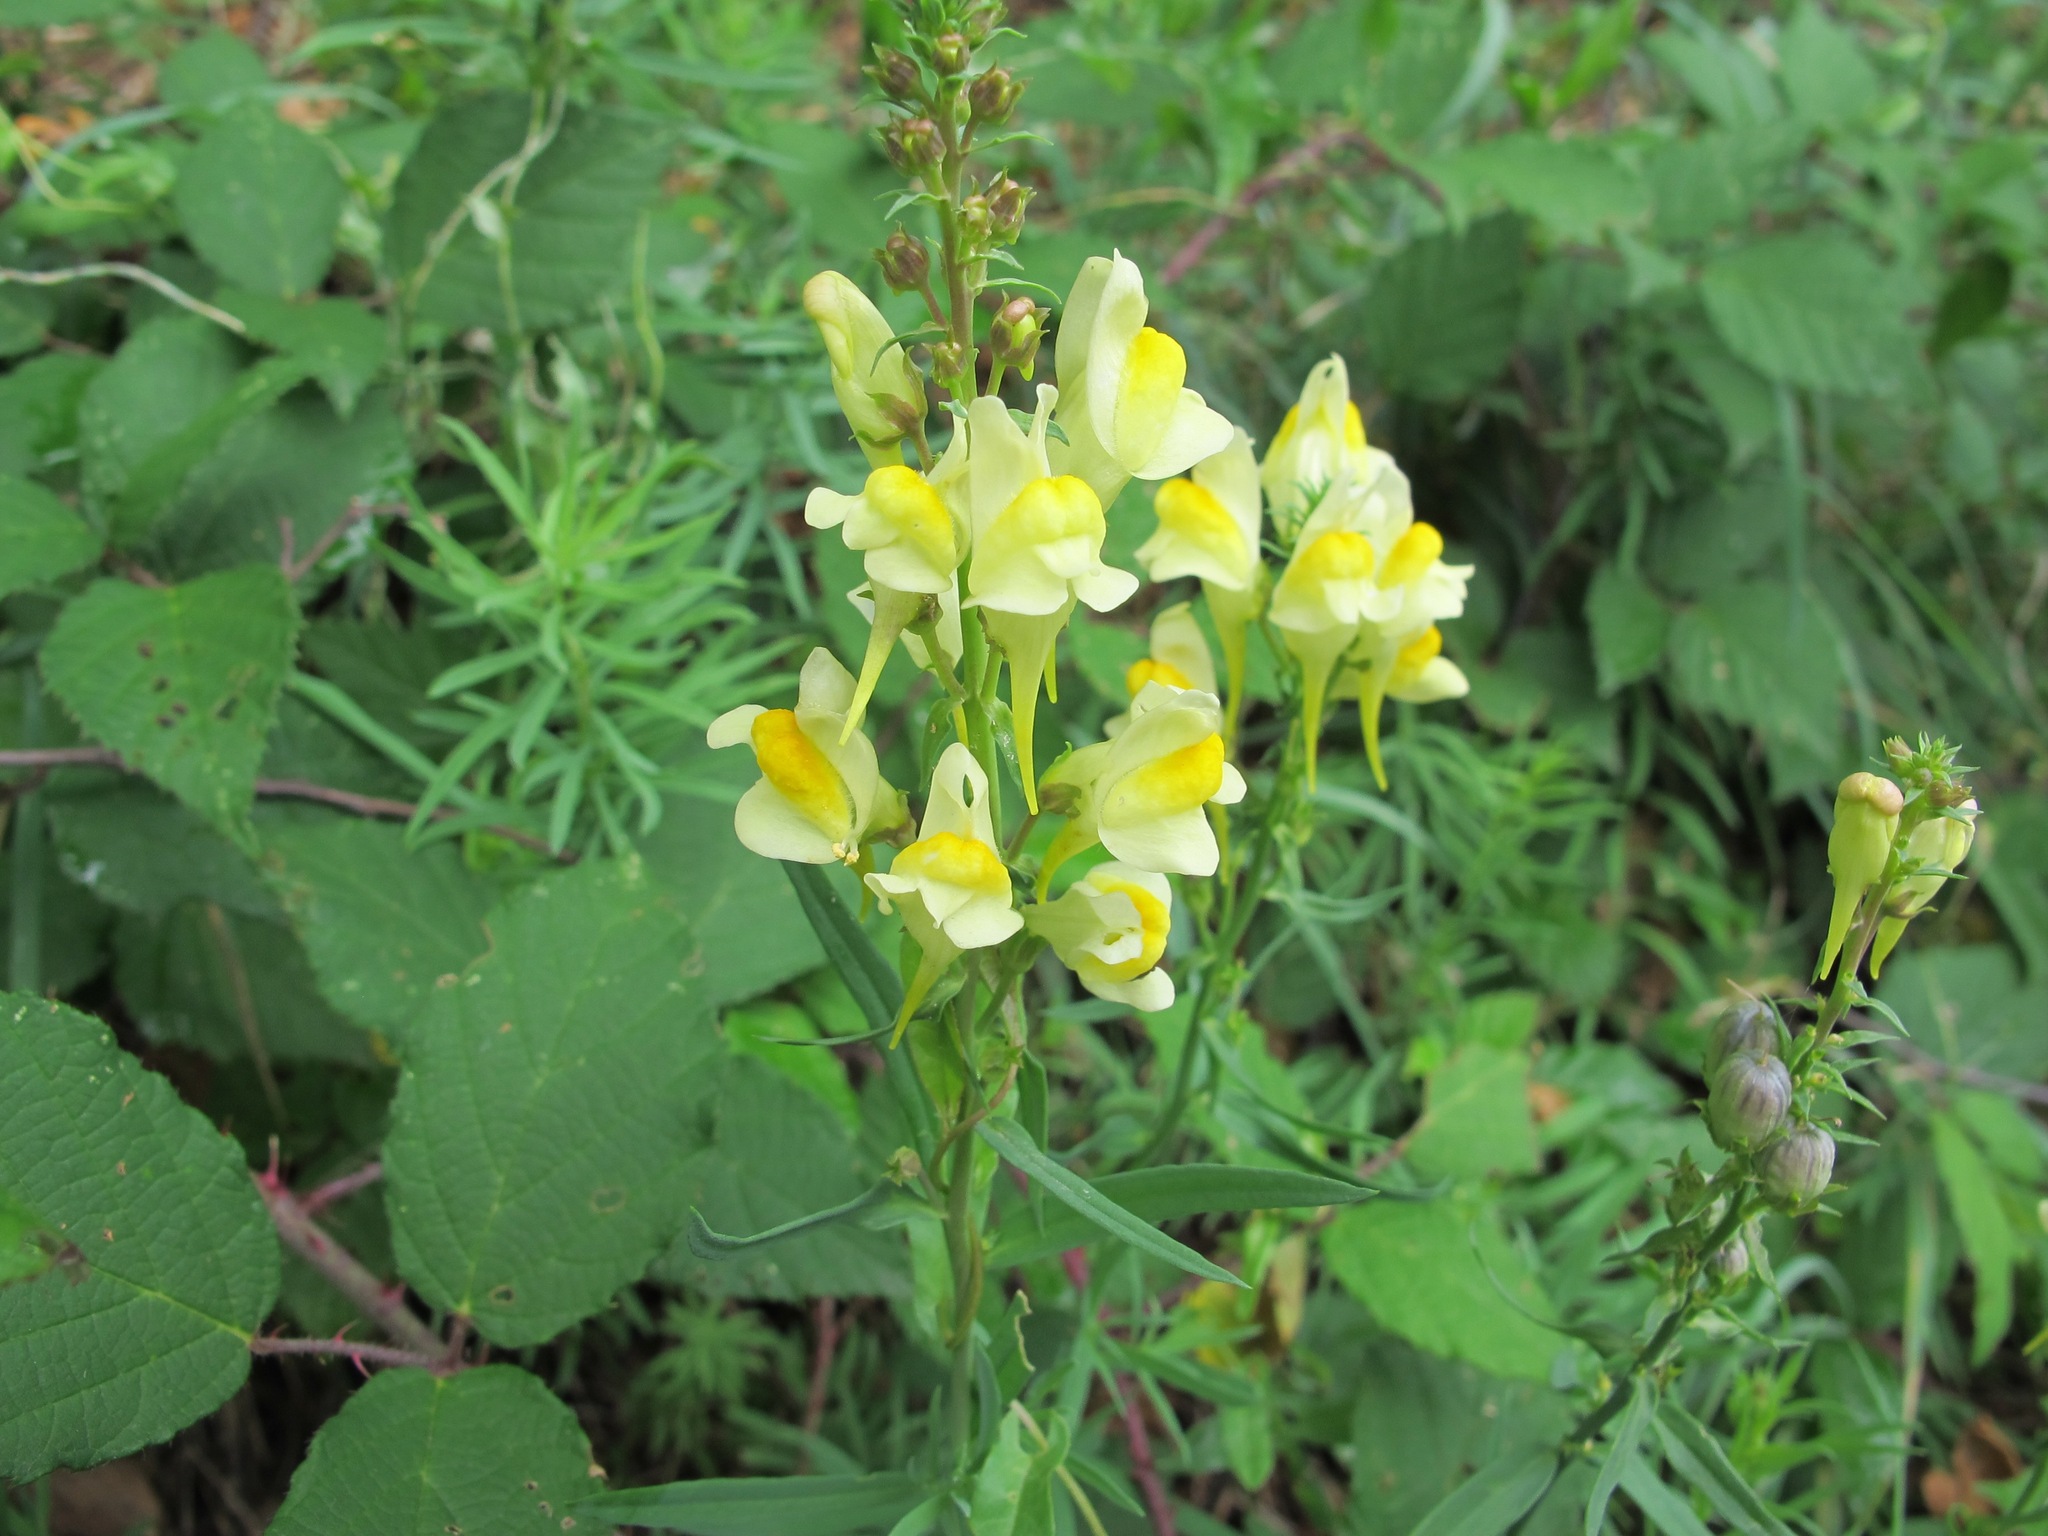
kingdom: Plantae
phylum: Tracheophyta
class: Magnoliopsida
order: Lamiales
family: Plantaginaceae
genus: Linaria
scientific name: Linaria vulgaris
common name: Butter and eggs
